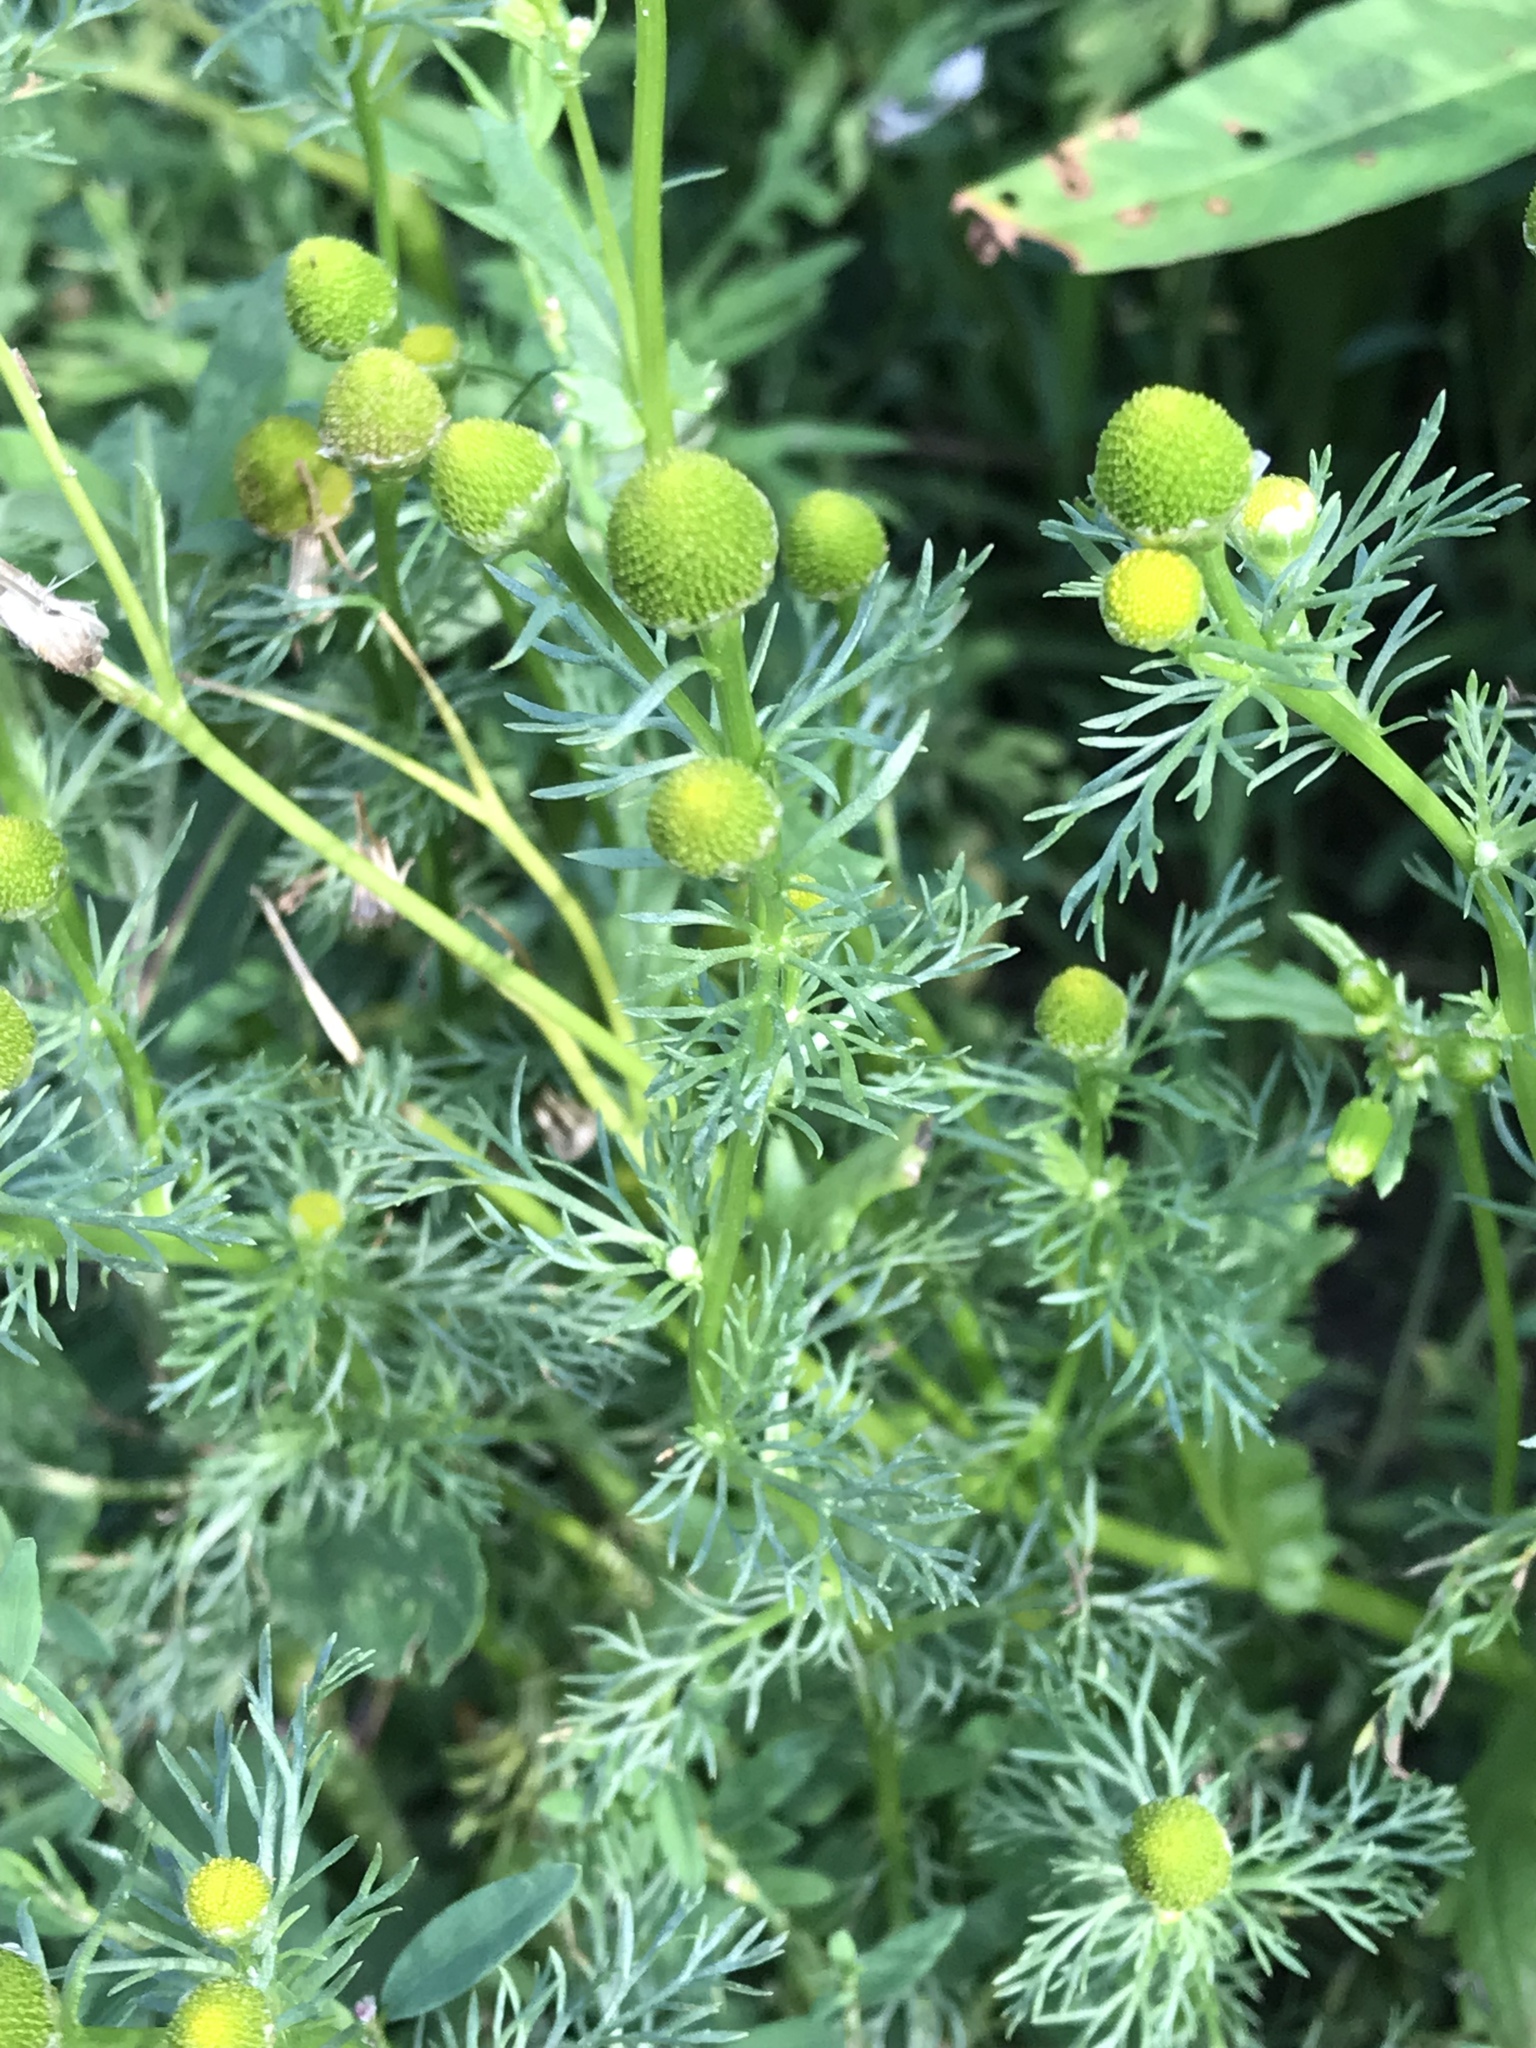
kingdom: Plantae
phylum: Tracheophyta
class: Magnoliopsida
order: Asterales
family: Asteraceae
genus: Matricaria
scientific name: Matricaria discoidea
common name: Disc mayweed
